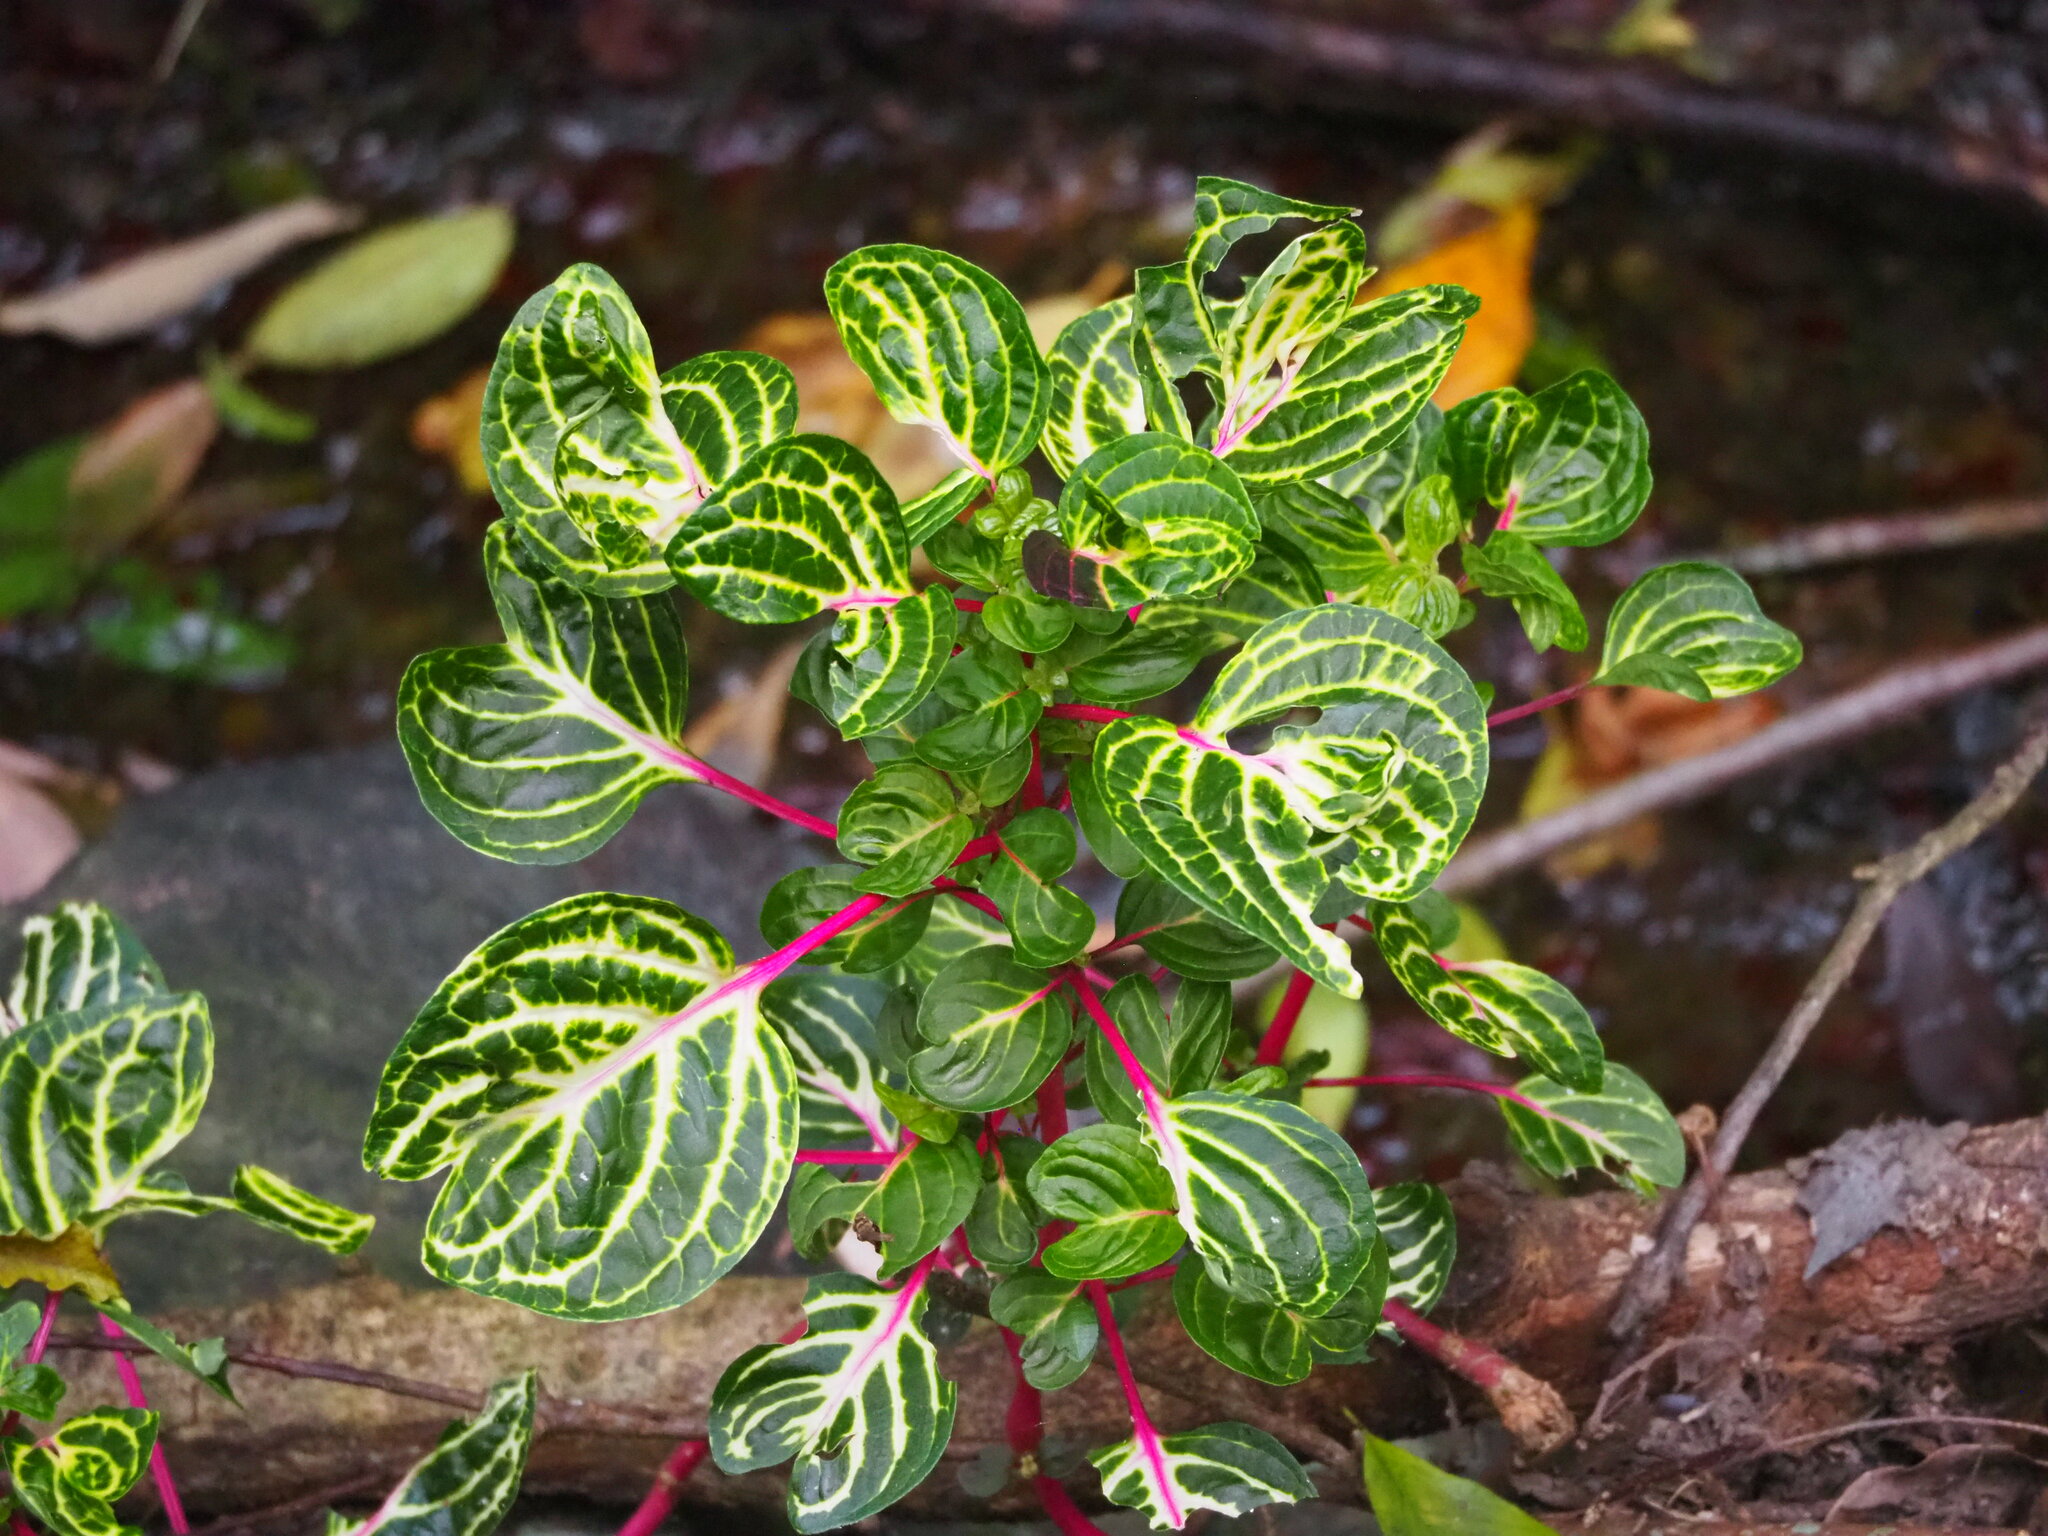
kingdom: Plantae
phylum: Tracheophyta
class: Magnoliopsida
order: Caryophyllales
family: Amaranthaceae
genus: Iresine
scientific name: Iresine diffusa
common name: Juba's-bush
